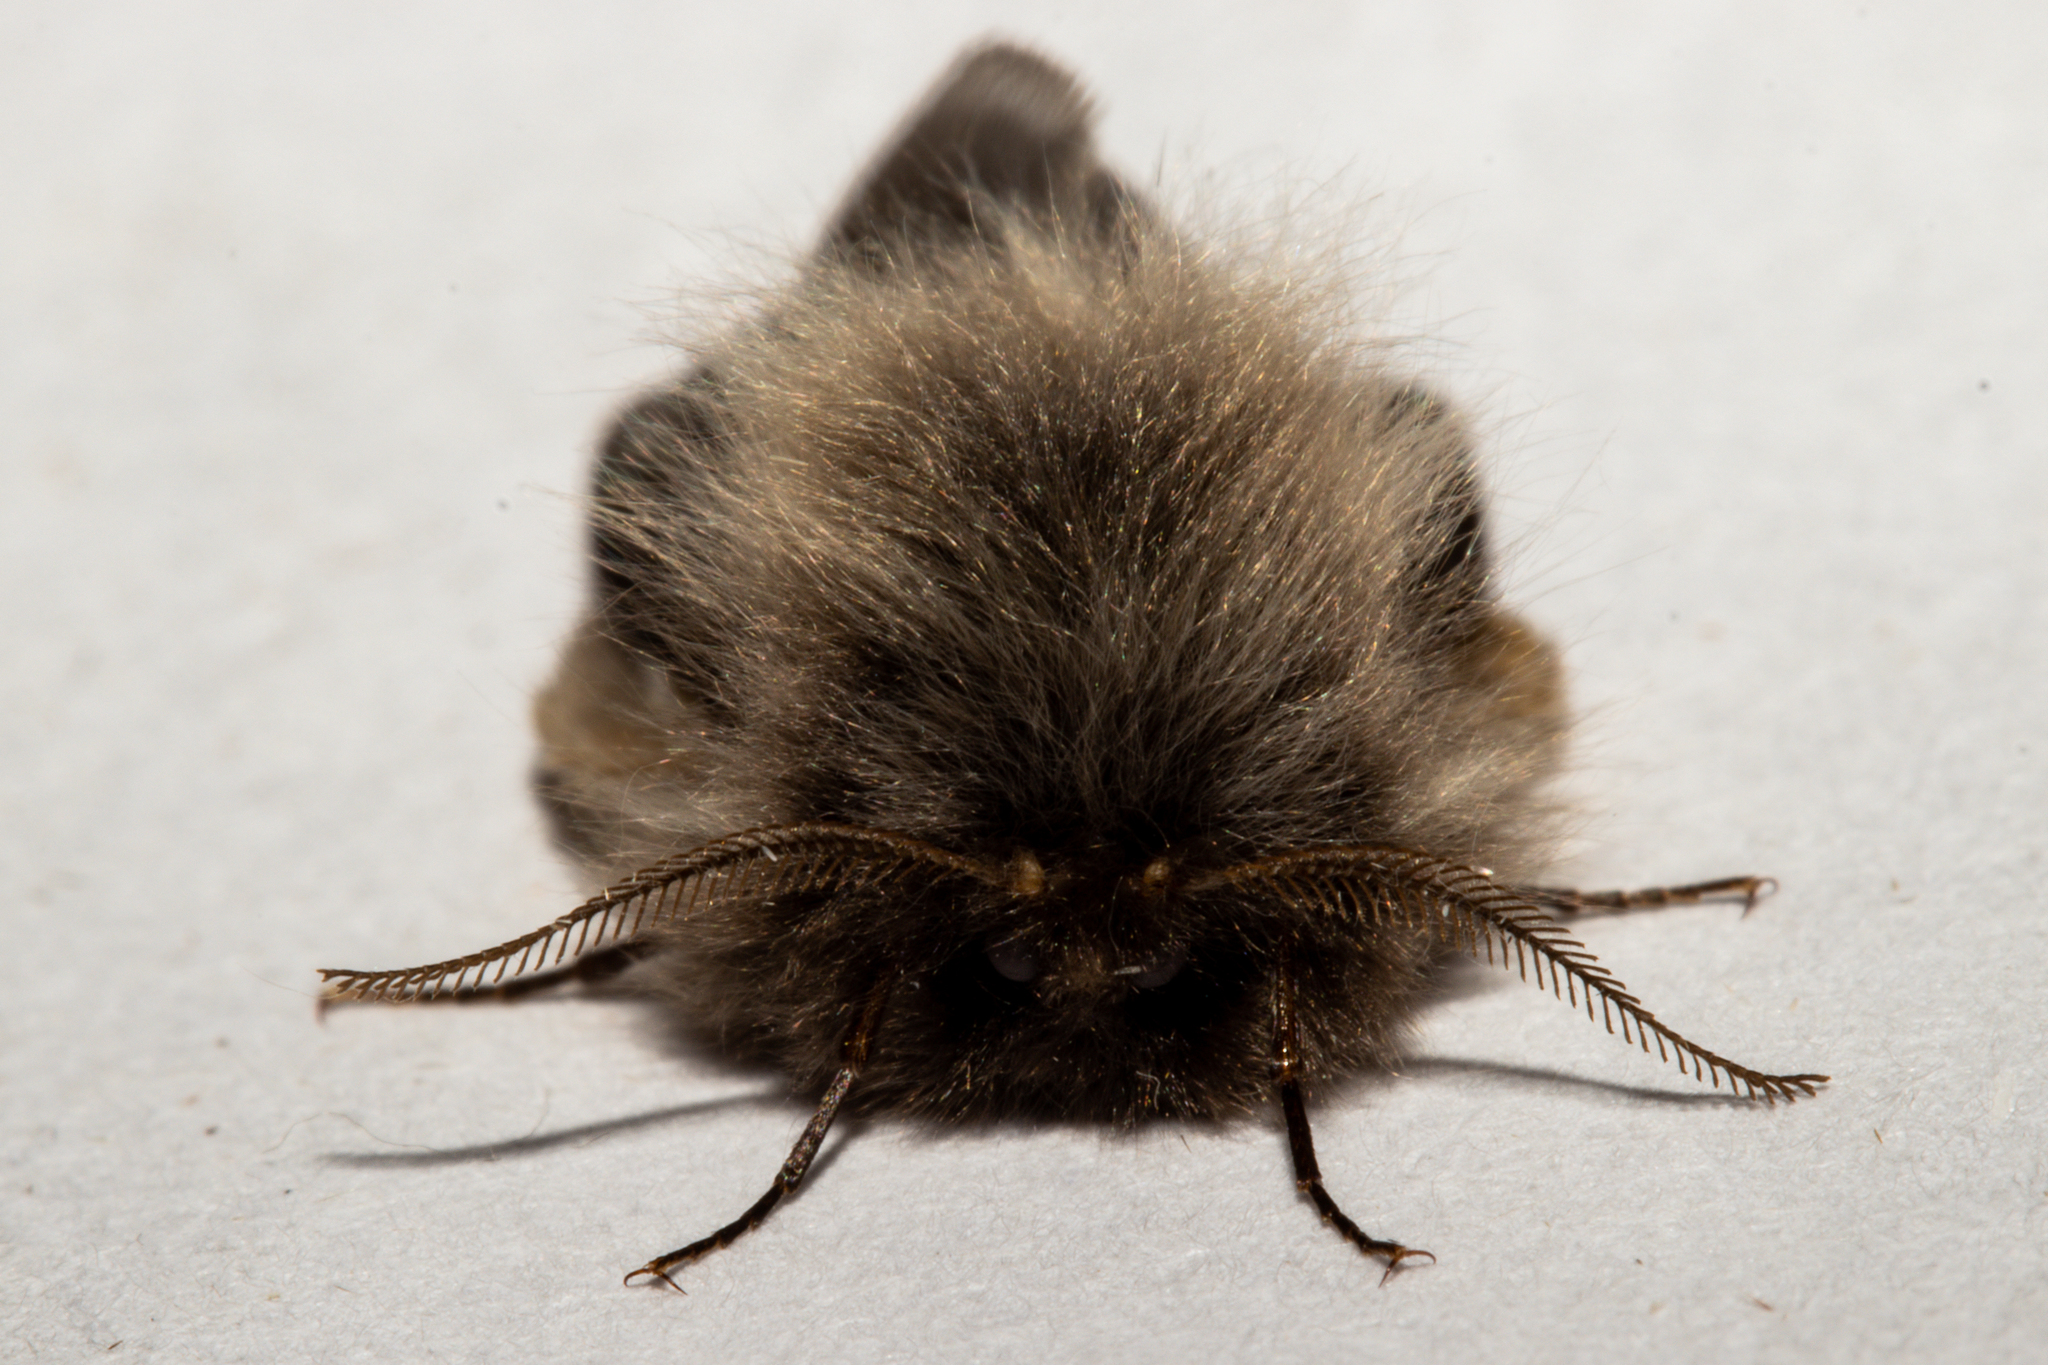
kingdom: Animalia
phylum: Arthropoda
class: Insecta
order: Lepidoptera
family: Psychidae
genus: Orophora
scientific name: Orophora unicolor
